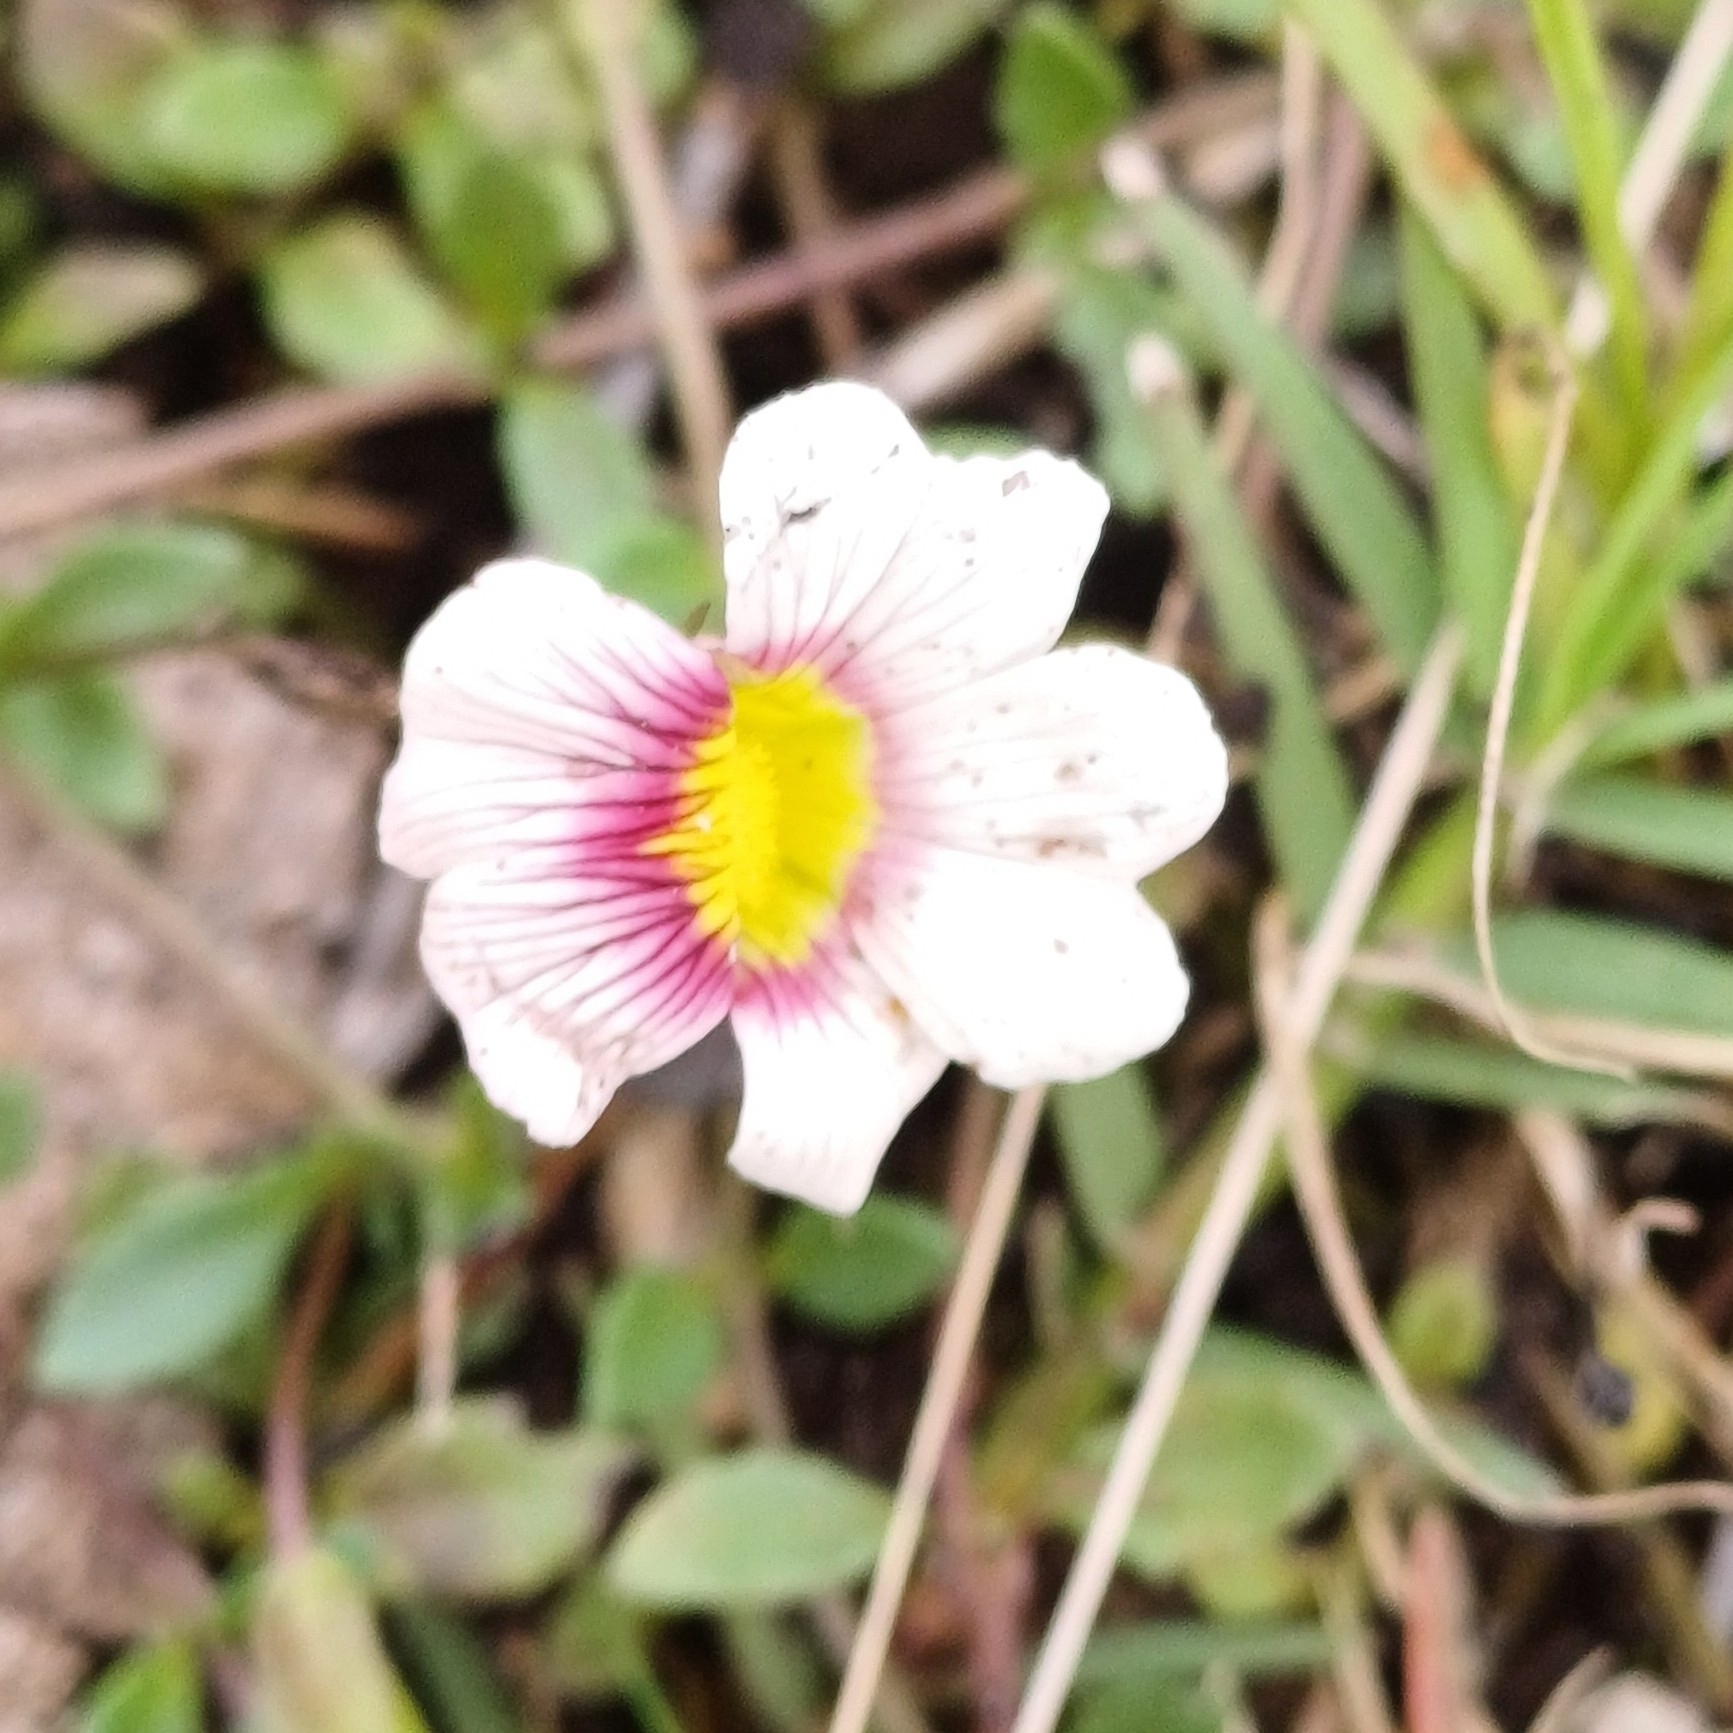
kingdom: Plantae
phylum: Tracheophyta
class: Magnoliopsida
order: Lamiales
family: Plantaginaceae
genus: Mecardonia
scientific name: Mecardonia procumbens
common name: Baby jump-up
